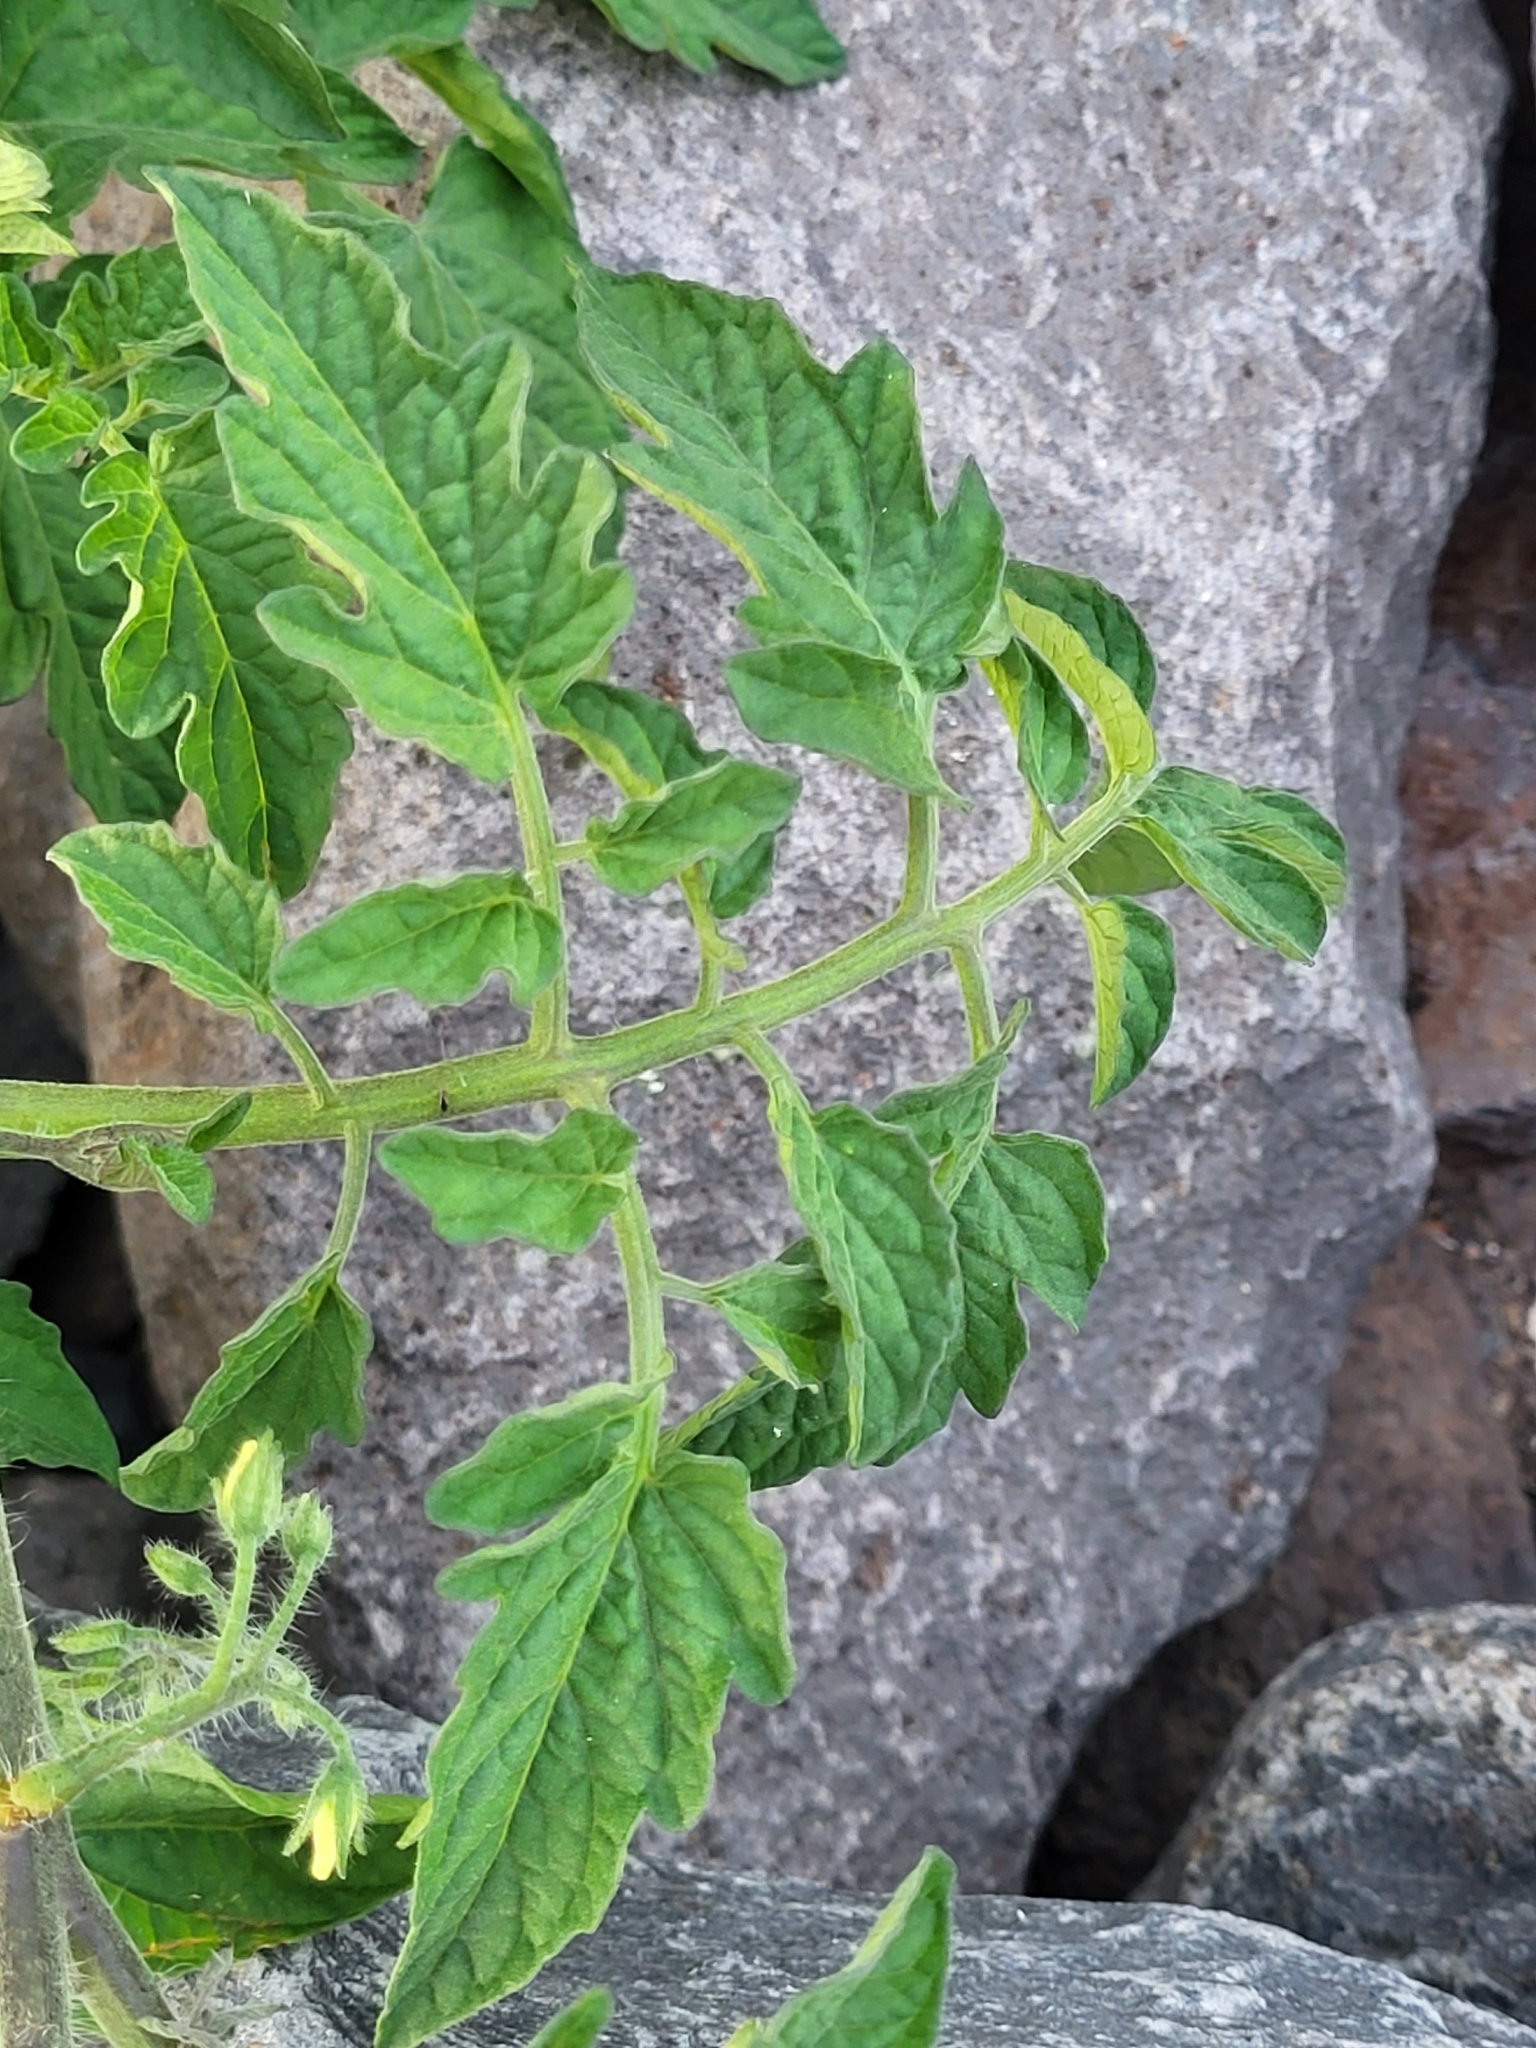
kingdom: Plantae
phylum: Tracheophyta
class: Magnoliopsida
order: Solanales
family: Solanaceae
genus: Solanum
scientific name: Solanum lycopersicum
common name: Garden tomato
